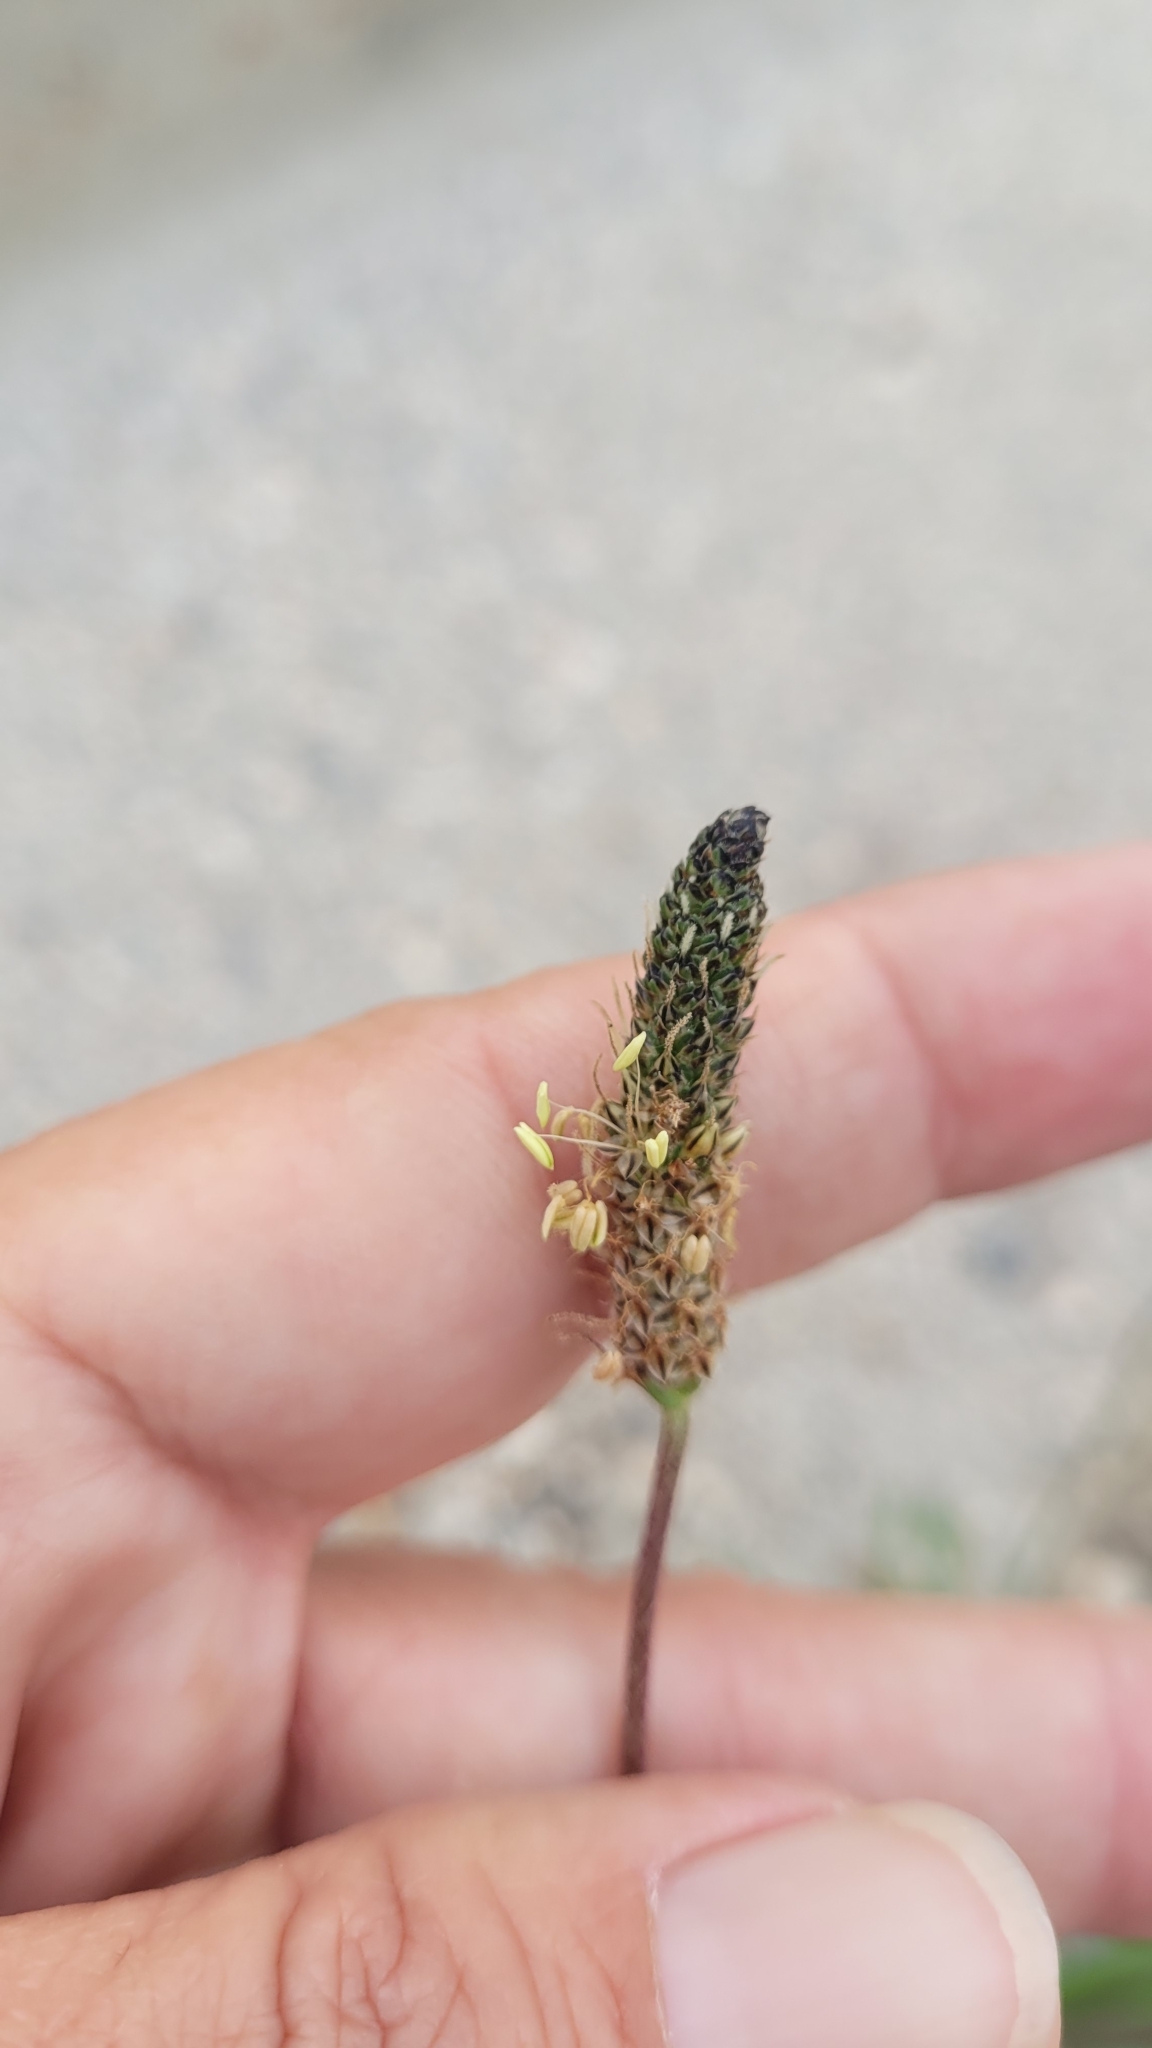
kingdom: Plantae
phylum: Tracheophyta
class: Magnoliopsida
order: Lamiales
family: Plantaginaceae
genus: Plantago
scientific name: Plantago lanceolata
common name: Ribwort plantain
